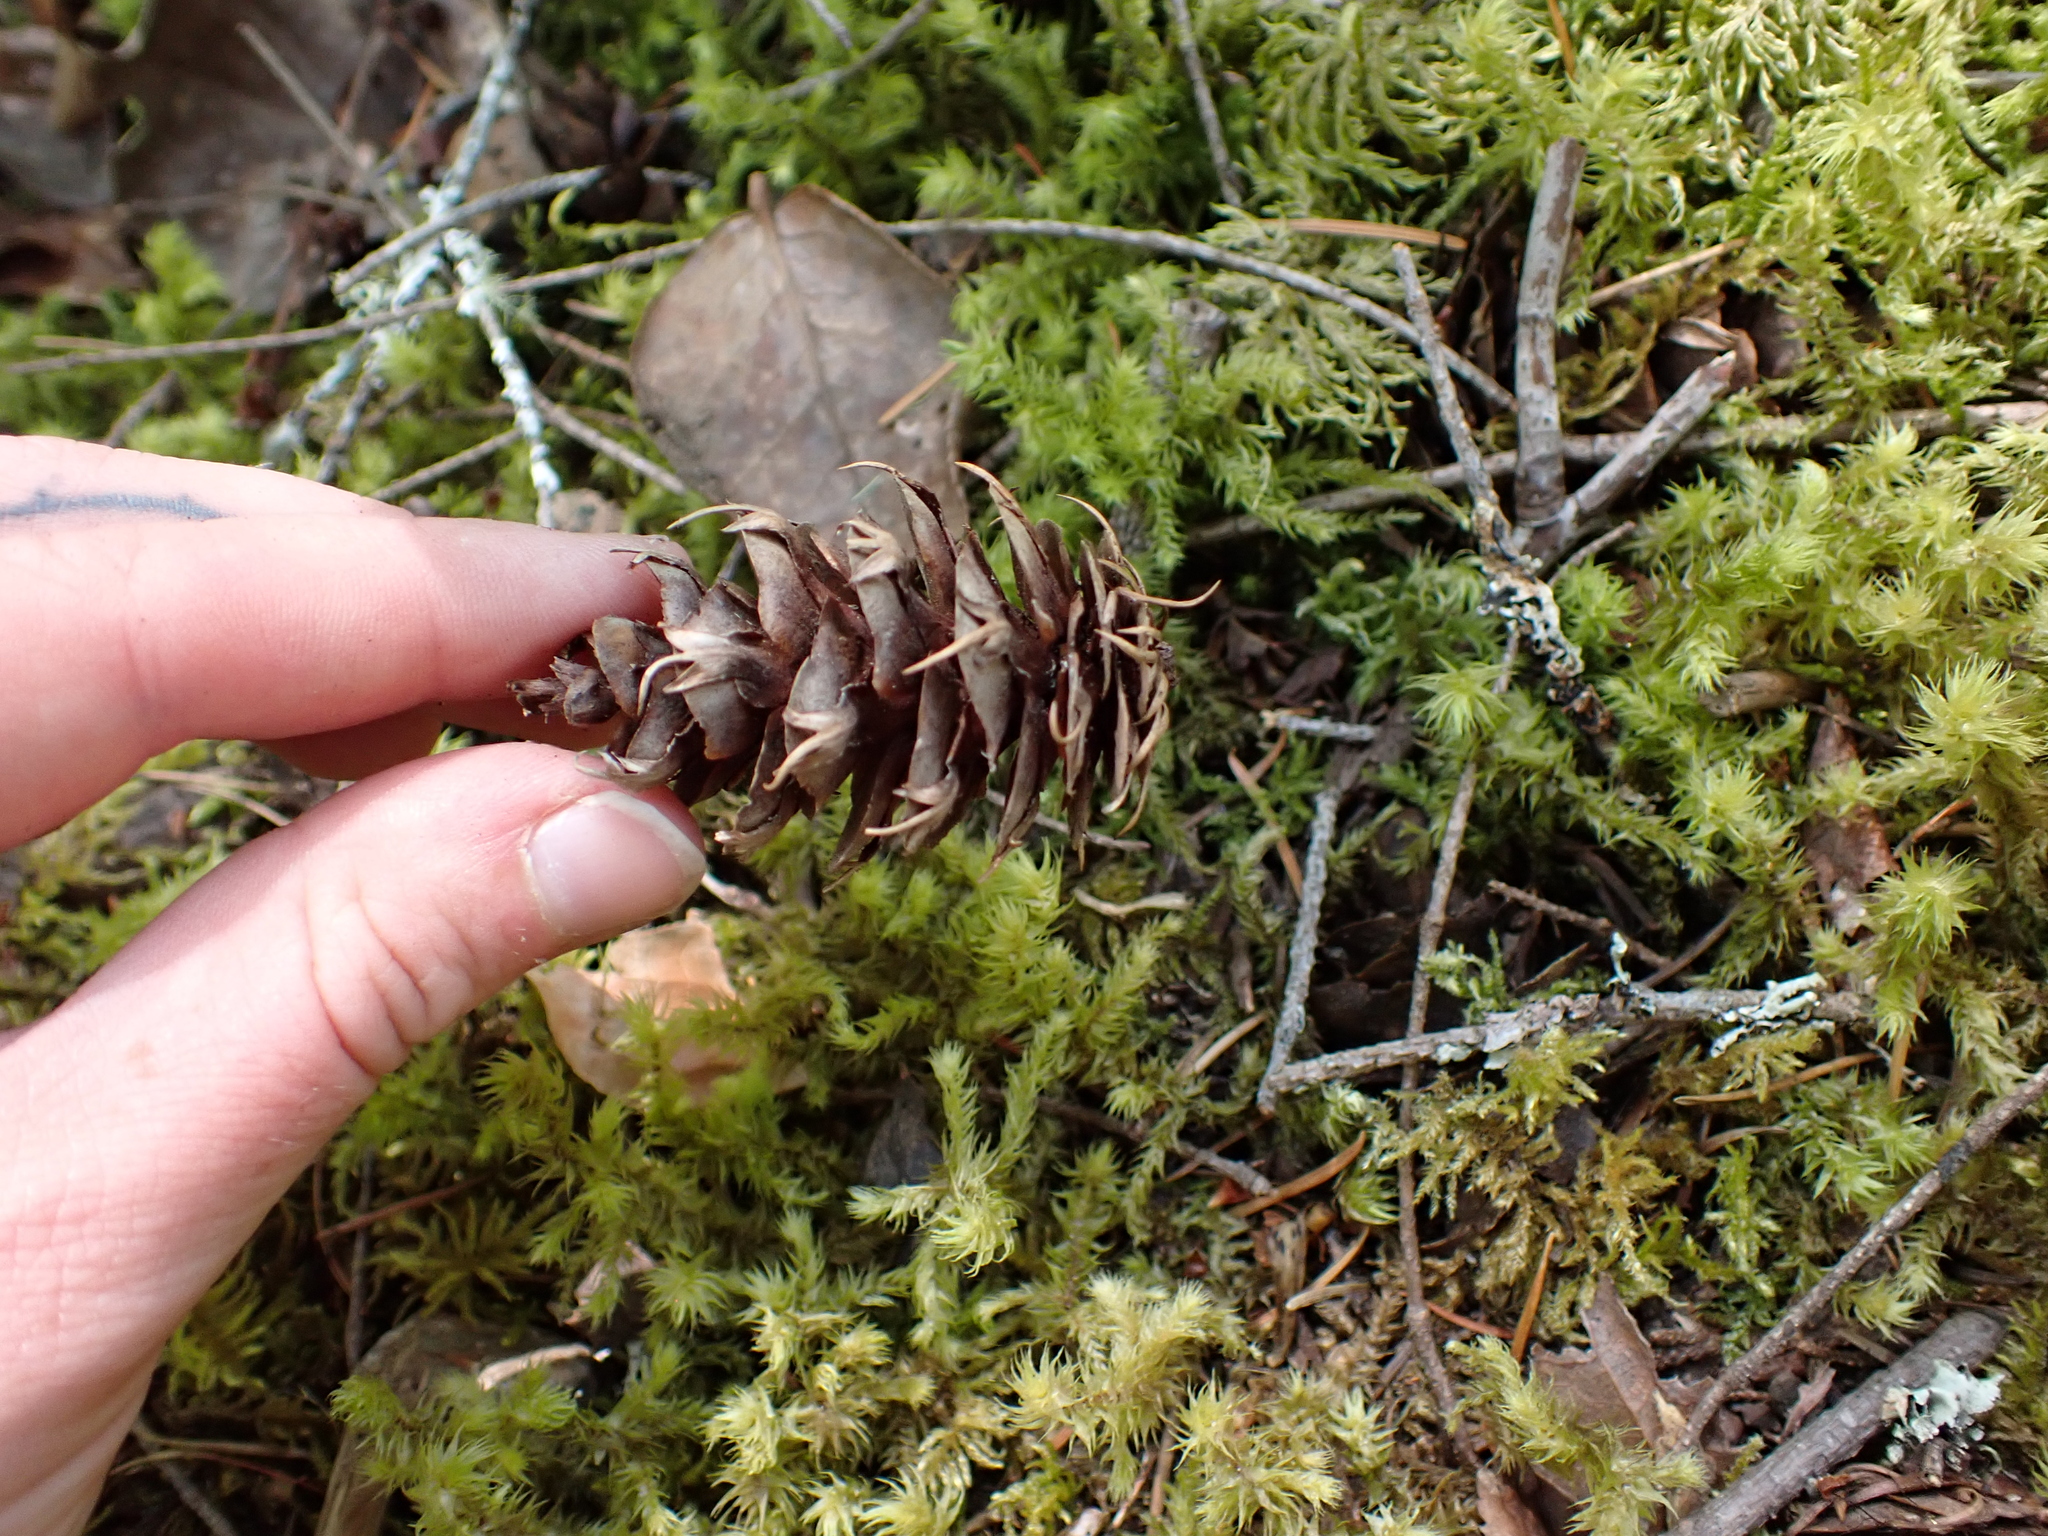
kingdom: Plantae
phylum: Tracheophyta
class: Pinopsida
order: Pinales
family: Pinaceae
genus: Pseudotsuga
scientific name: Pseudotsuga menziesii
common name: Douglas fir
